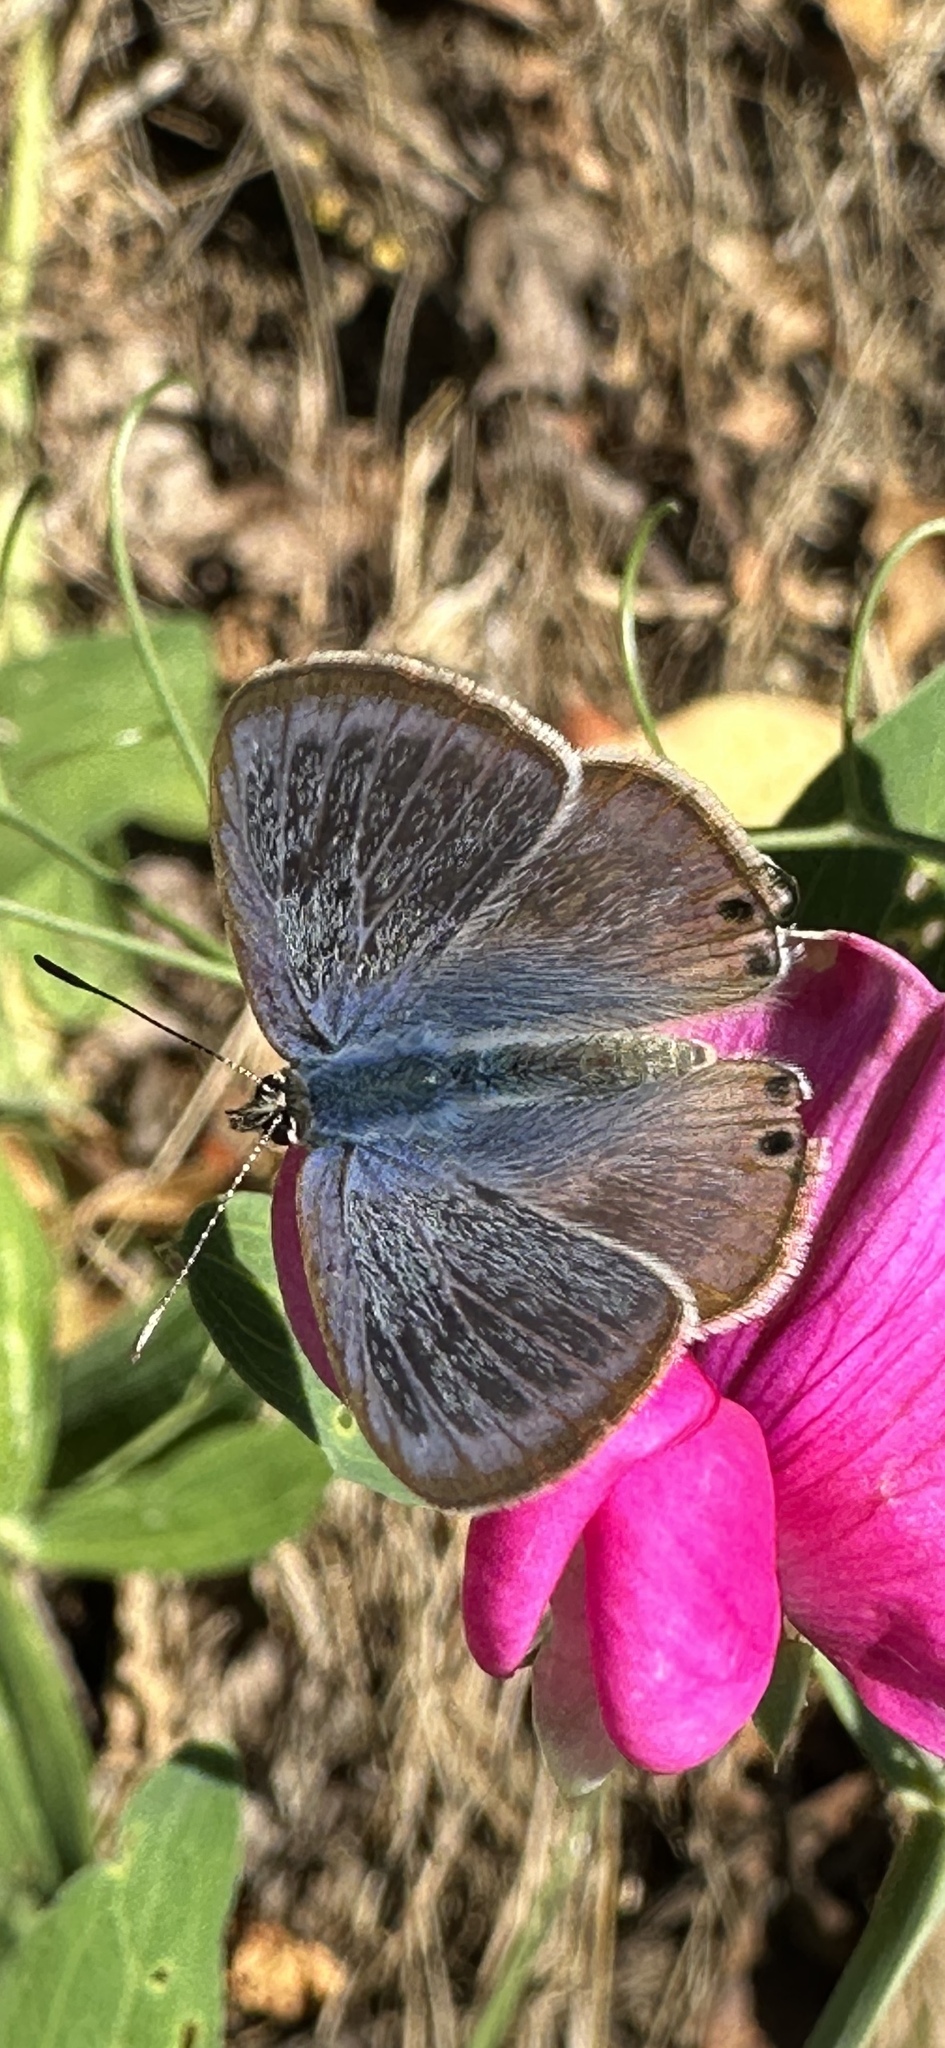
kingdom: Animalia
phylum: Arthropoda
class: Insecta
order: Lepidoptera
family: Lycaenidae
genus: Lampides
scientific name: Lampides boeticus
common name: Long-tailed blue
